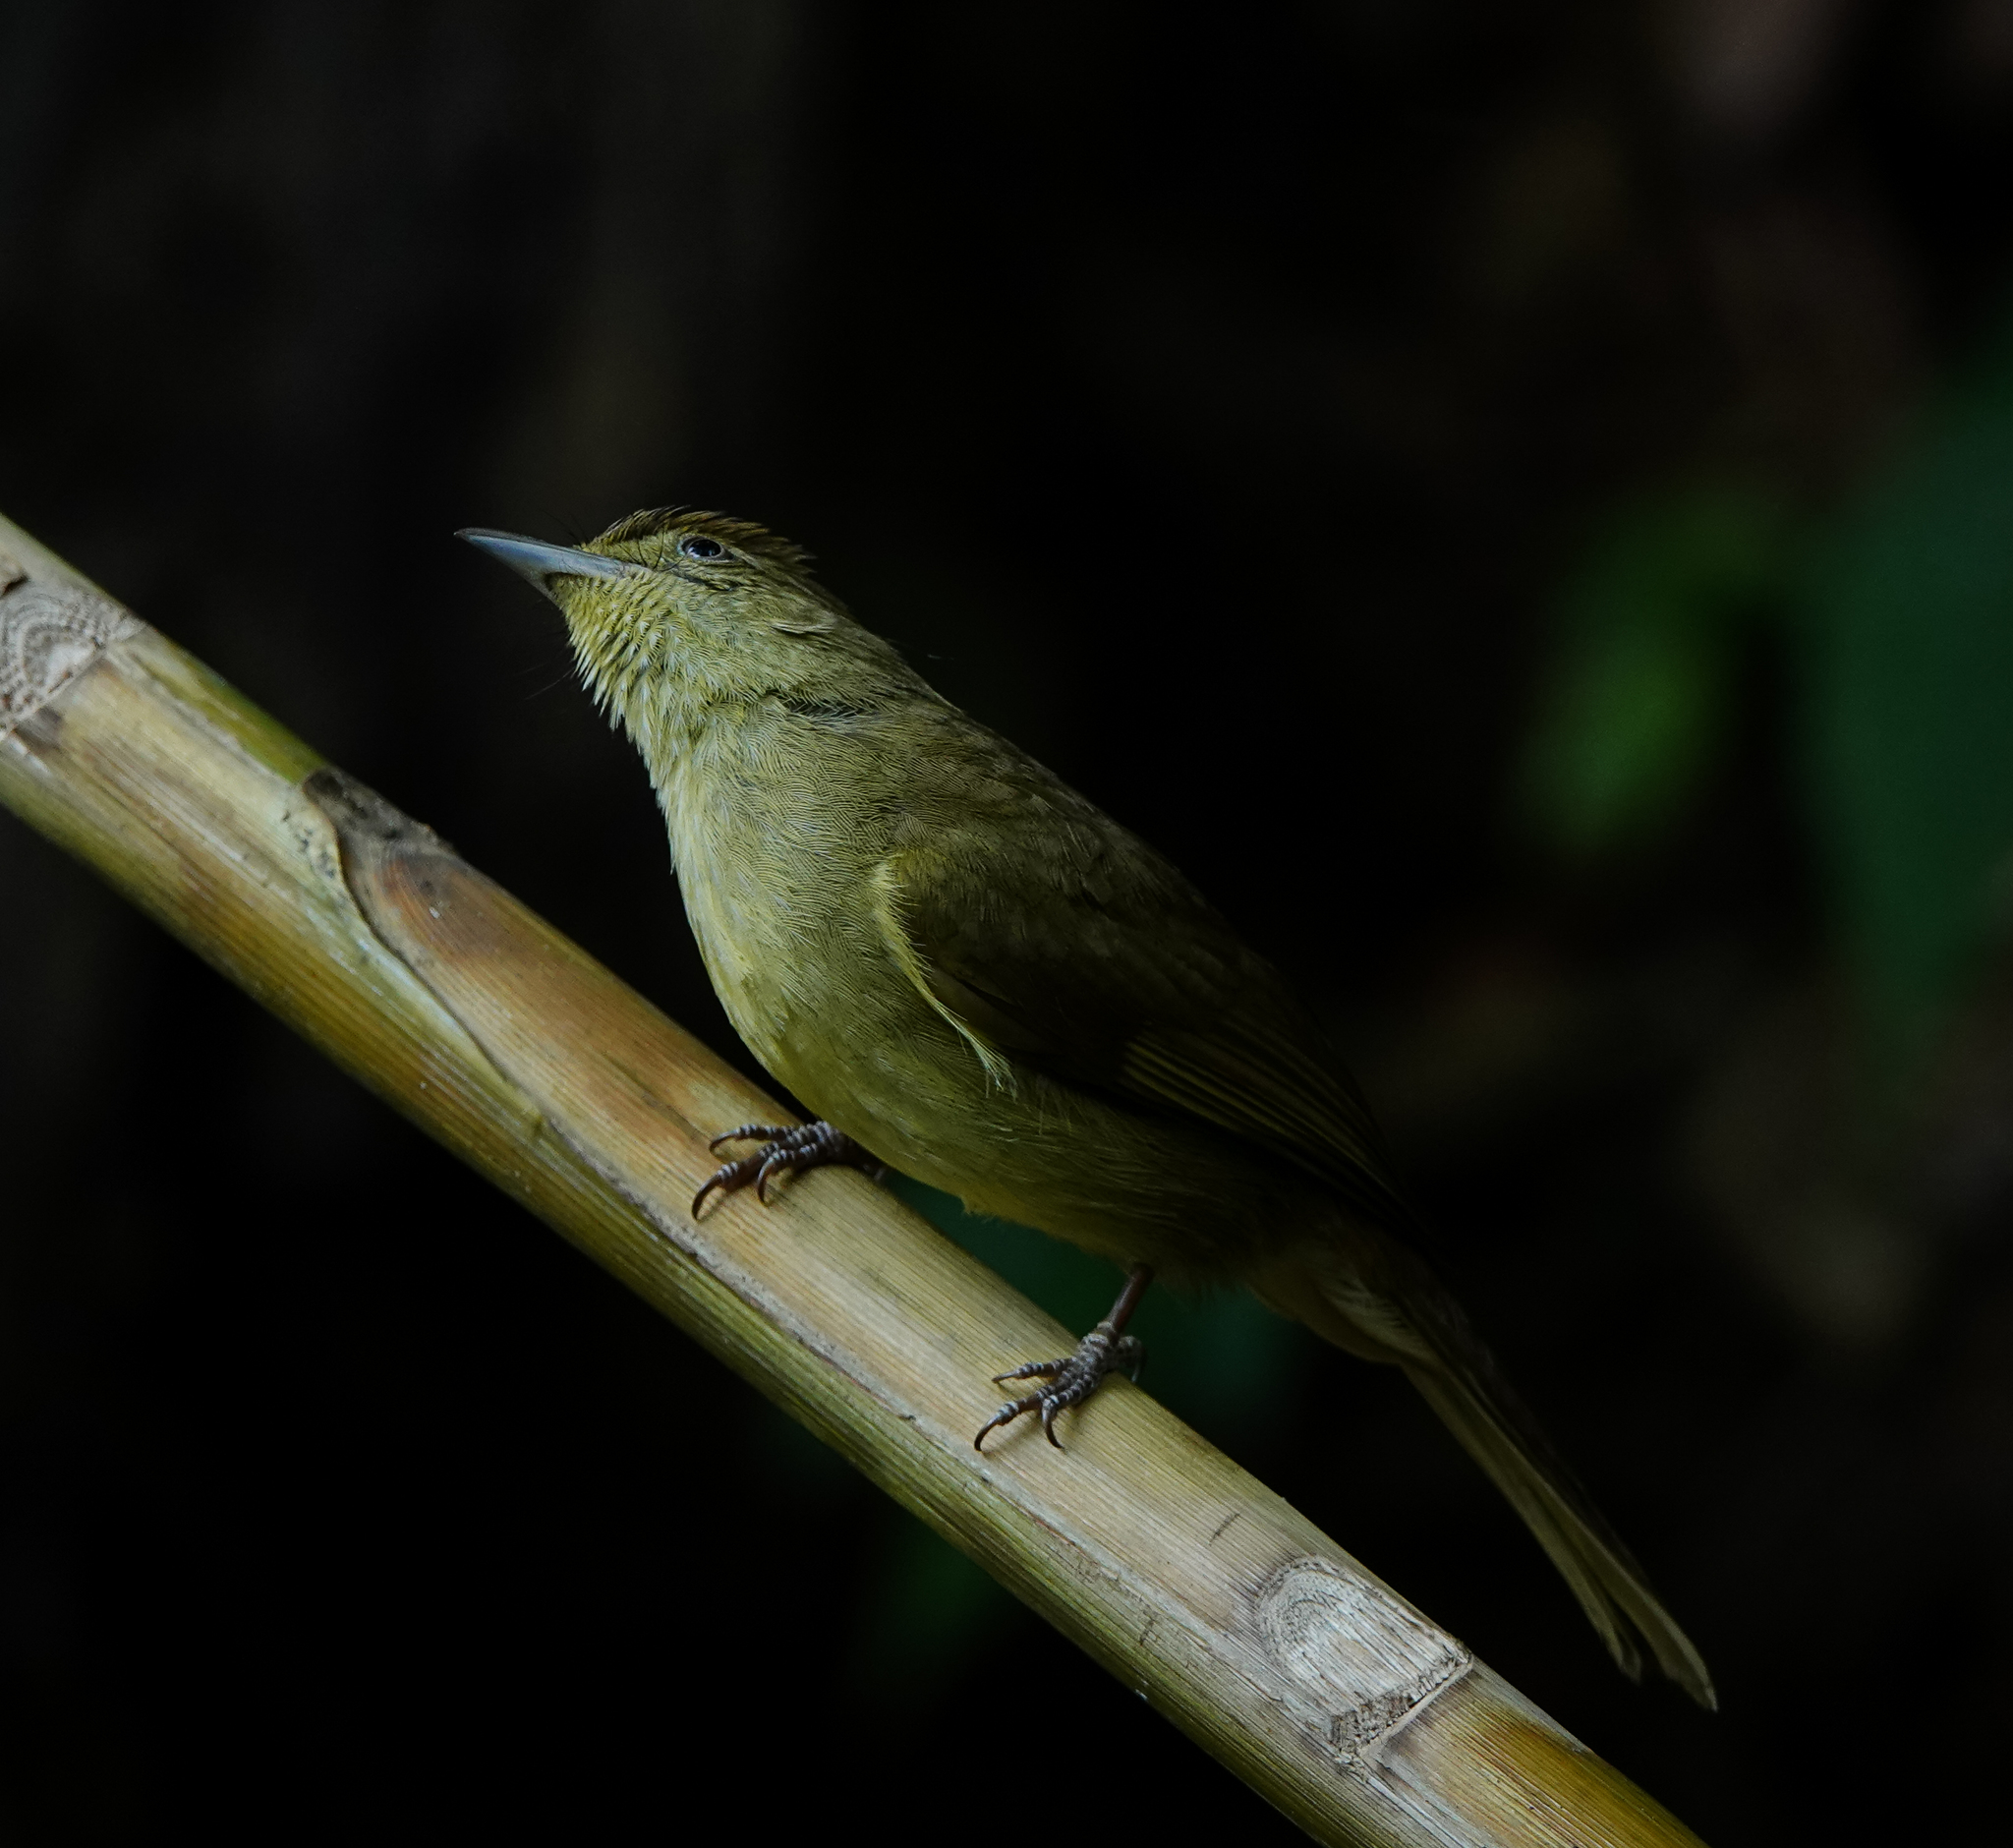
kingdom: Animalia
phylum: Chordata
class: Aves
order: Passeriformes
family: Pycnonotidae
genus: Iole
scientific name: Iole virescens
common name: Olive bulbul
